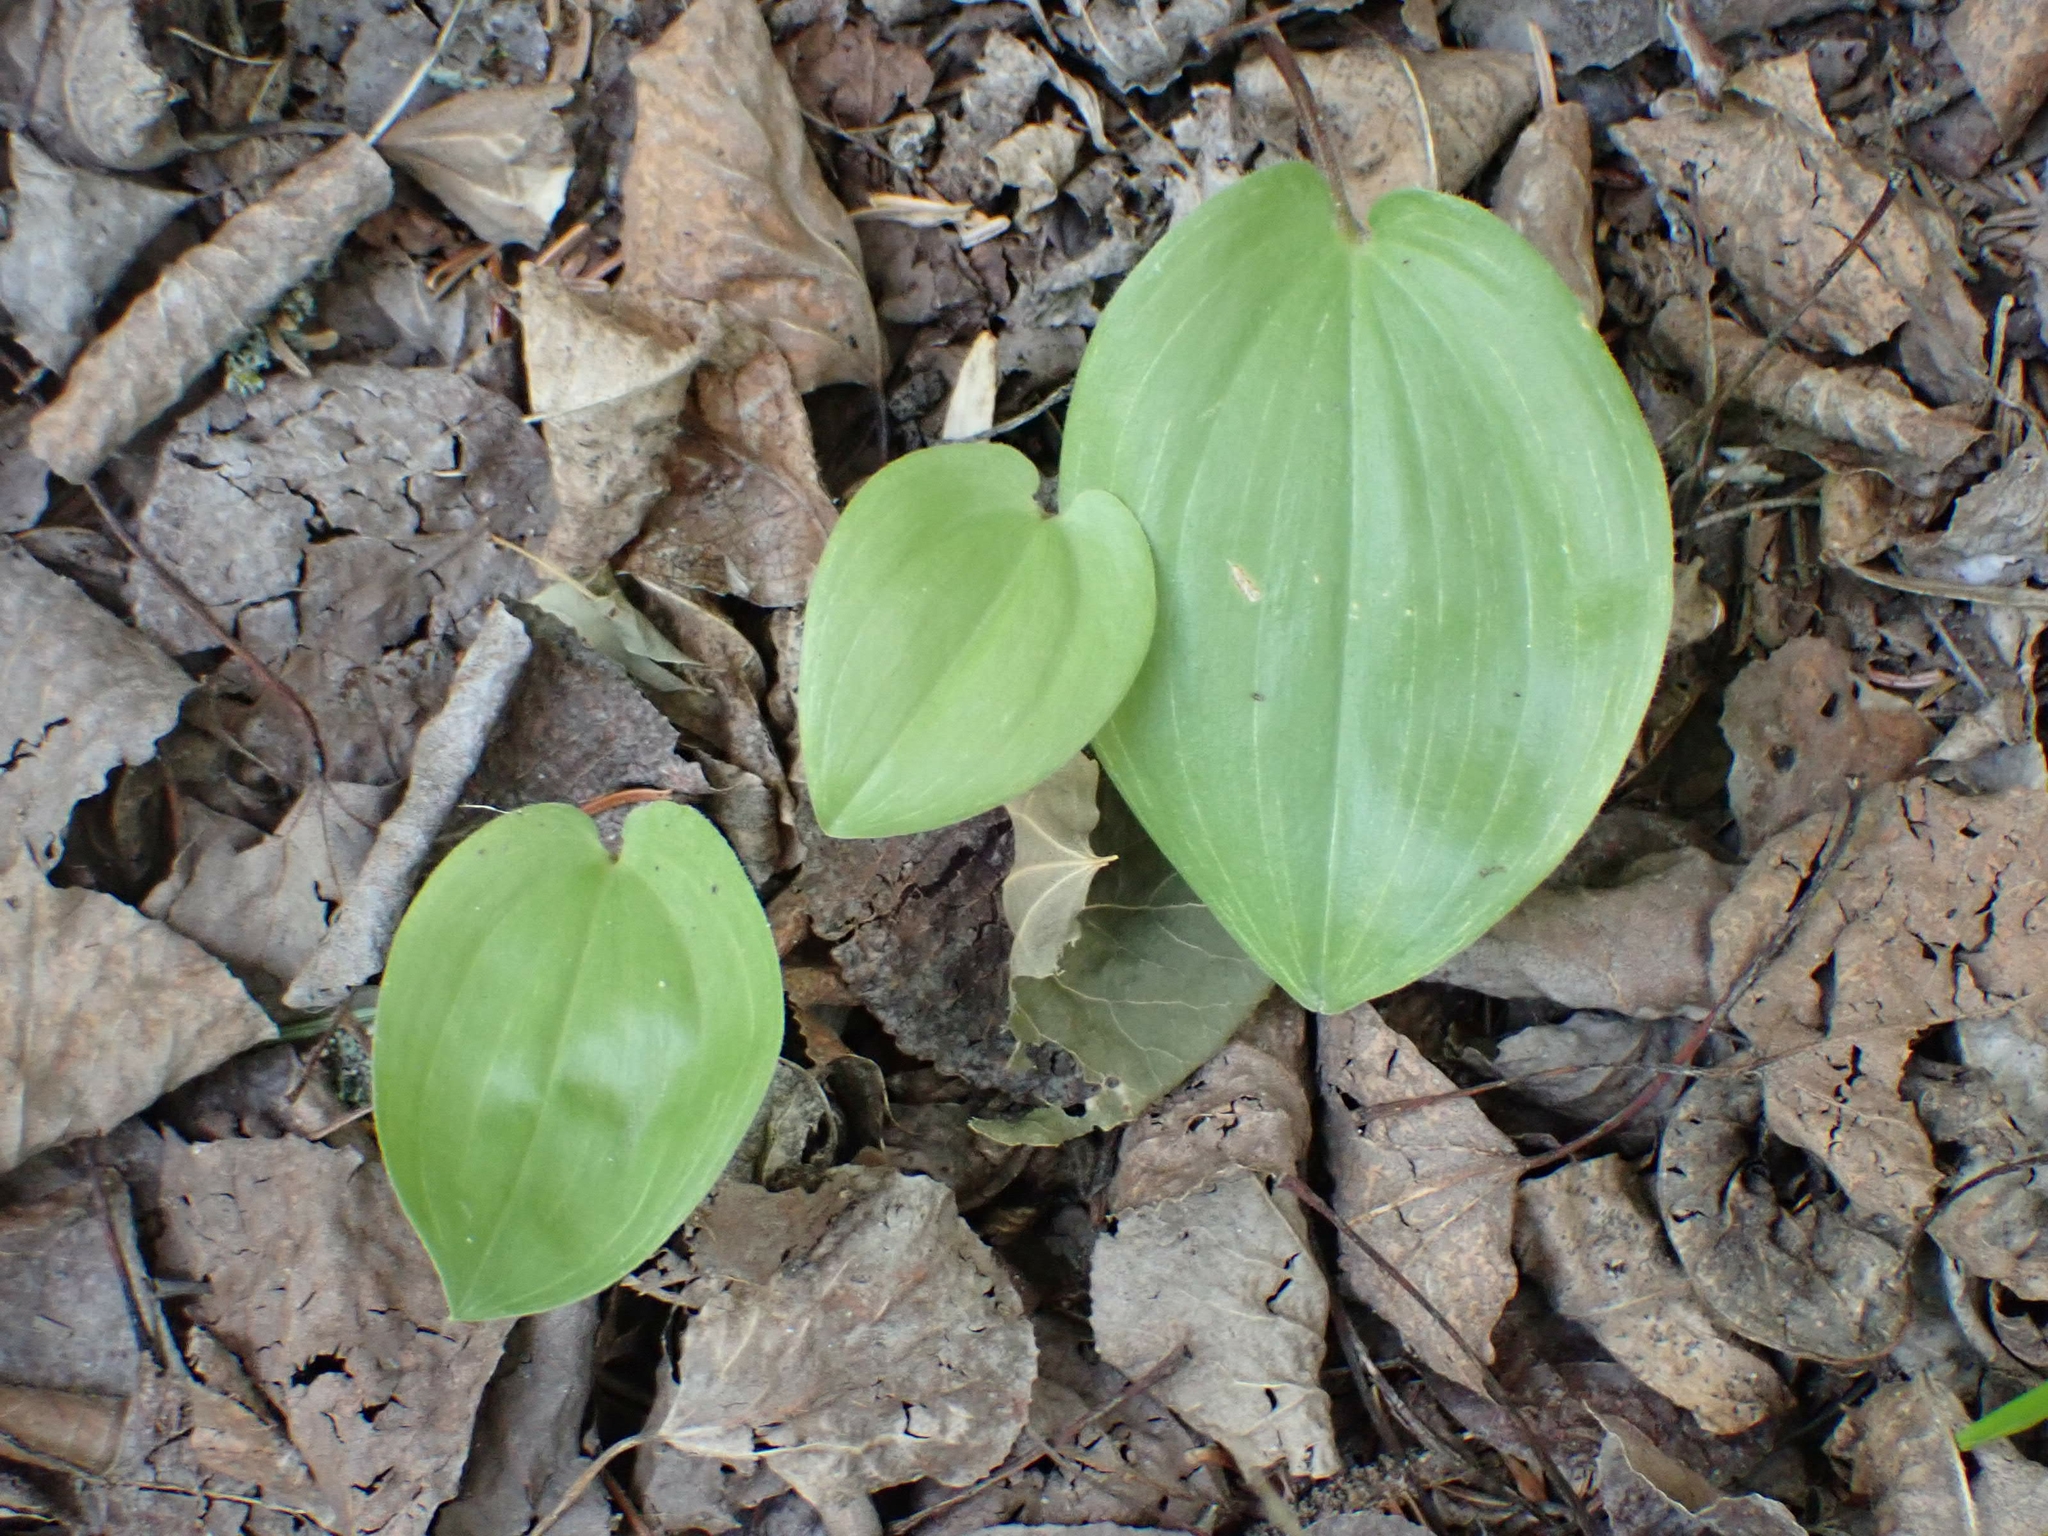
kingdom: Plantae
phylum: Tracheophyta
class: Liliopsida
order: Asparagales
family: Asparagaceae
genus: Maianthemum
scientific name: Maianthemum canadense
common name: False lily-of-the-valley
